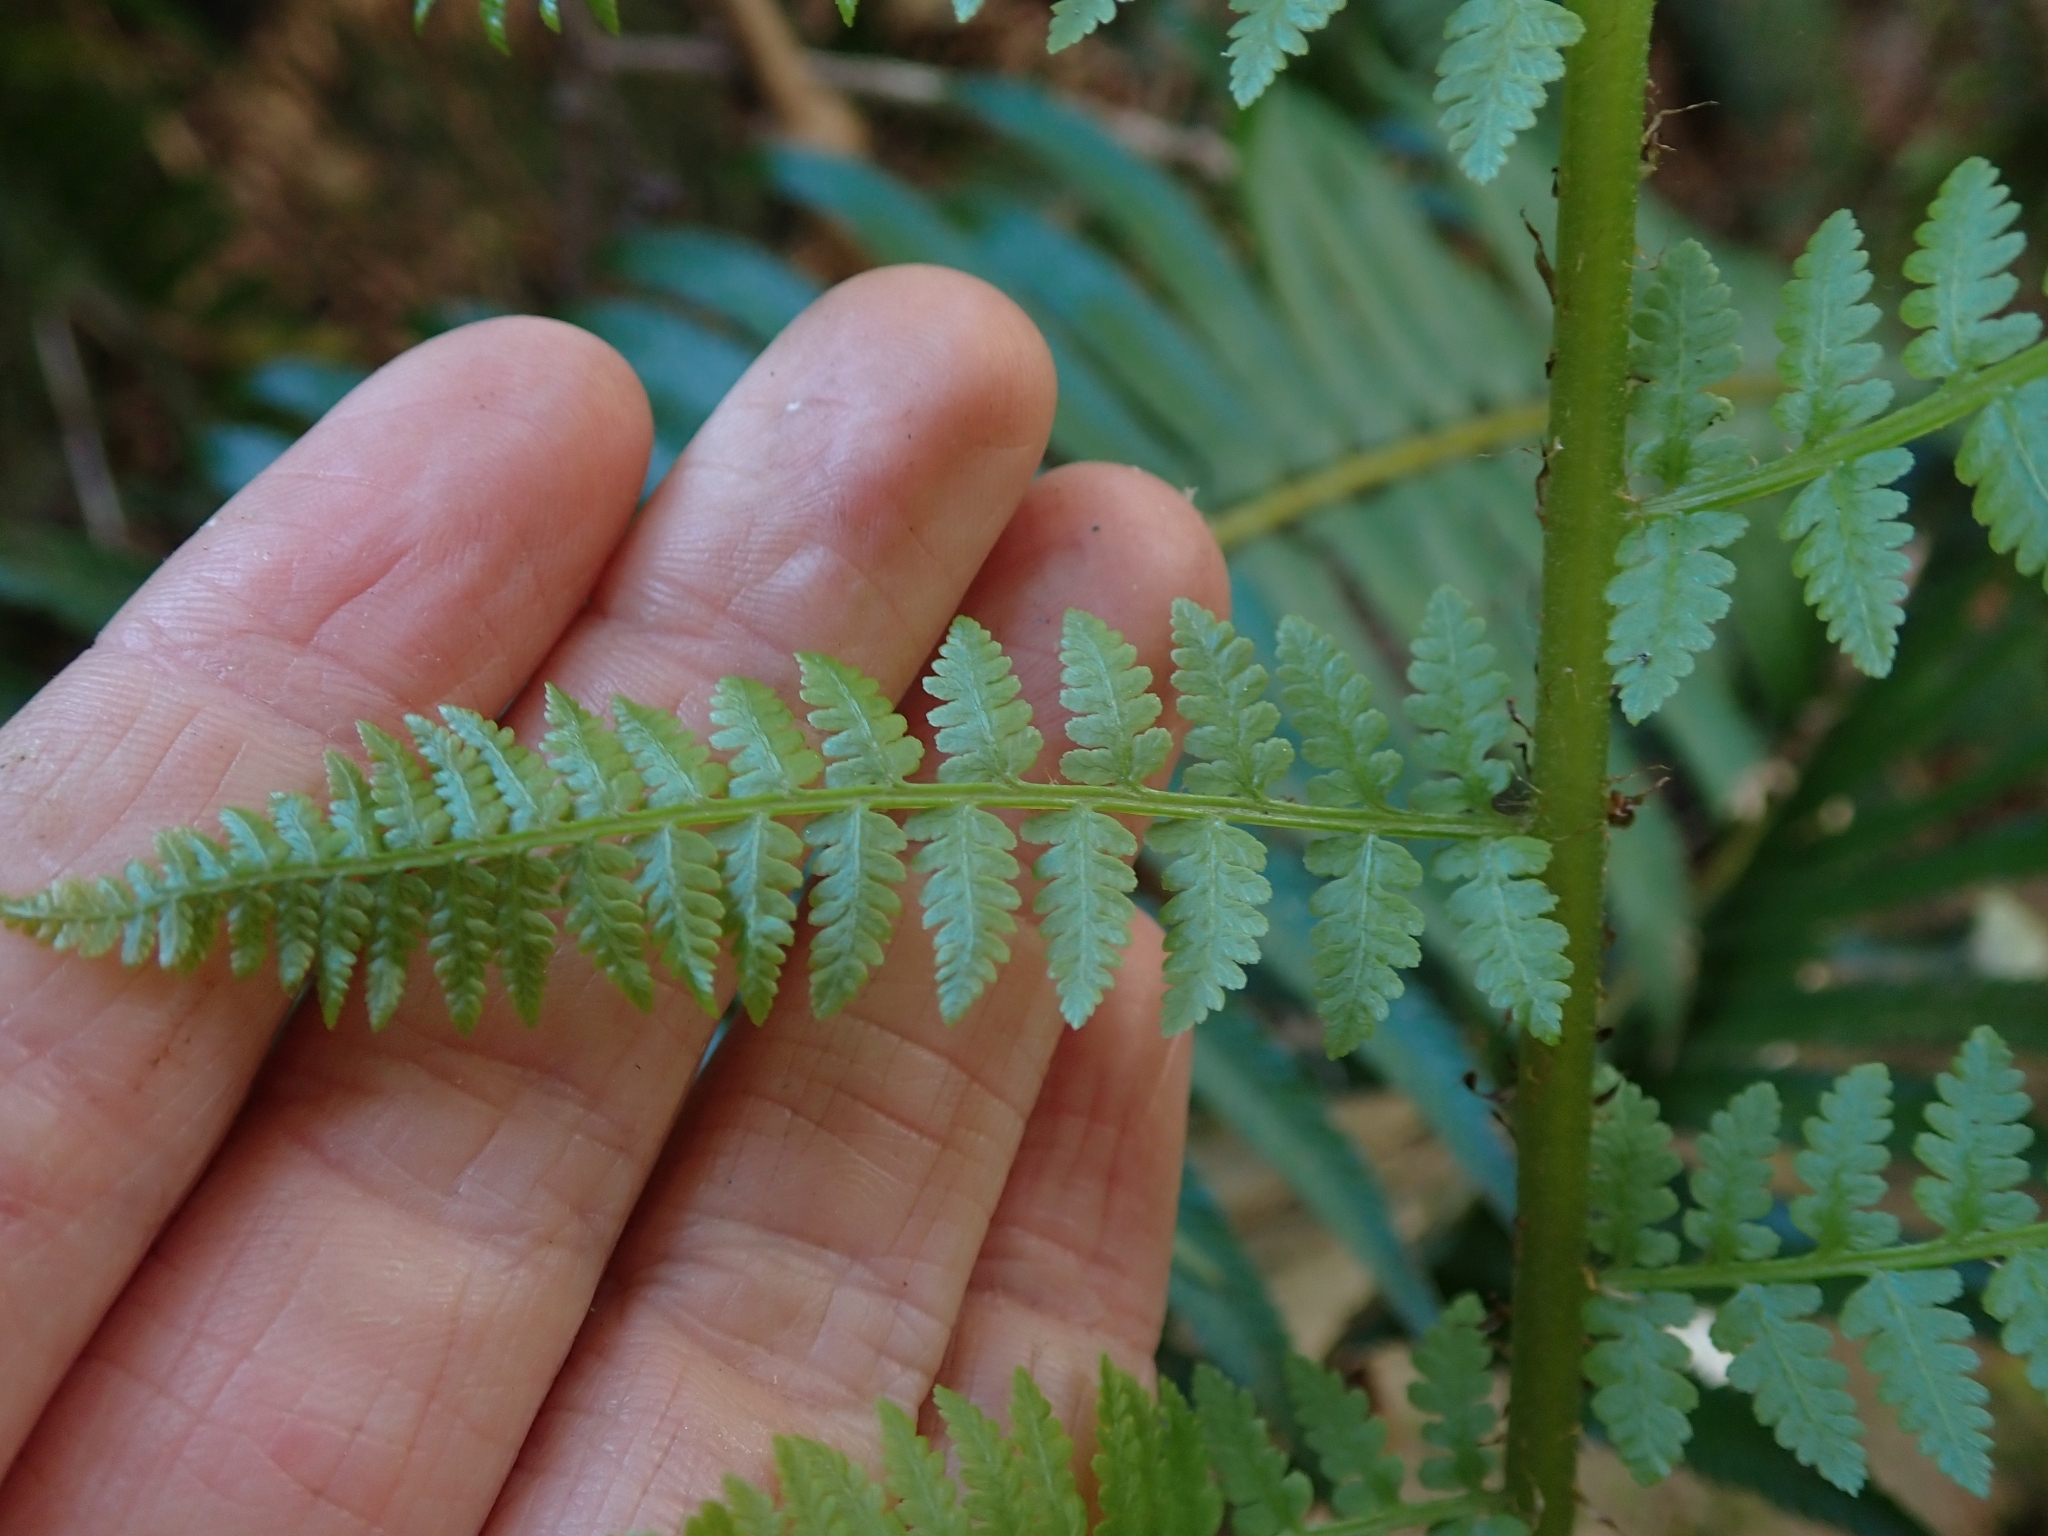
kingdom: Plantae
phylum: Tracheophyta
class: Polypodiopsida
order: Polypodiales
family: Athyriaceae
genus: Athyrium
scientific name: Athyrium filix-femina
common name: Lady fern
